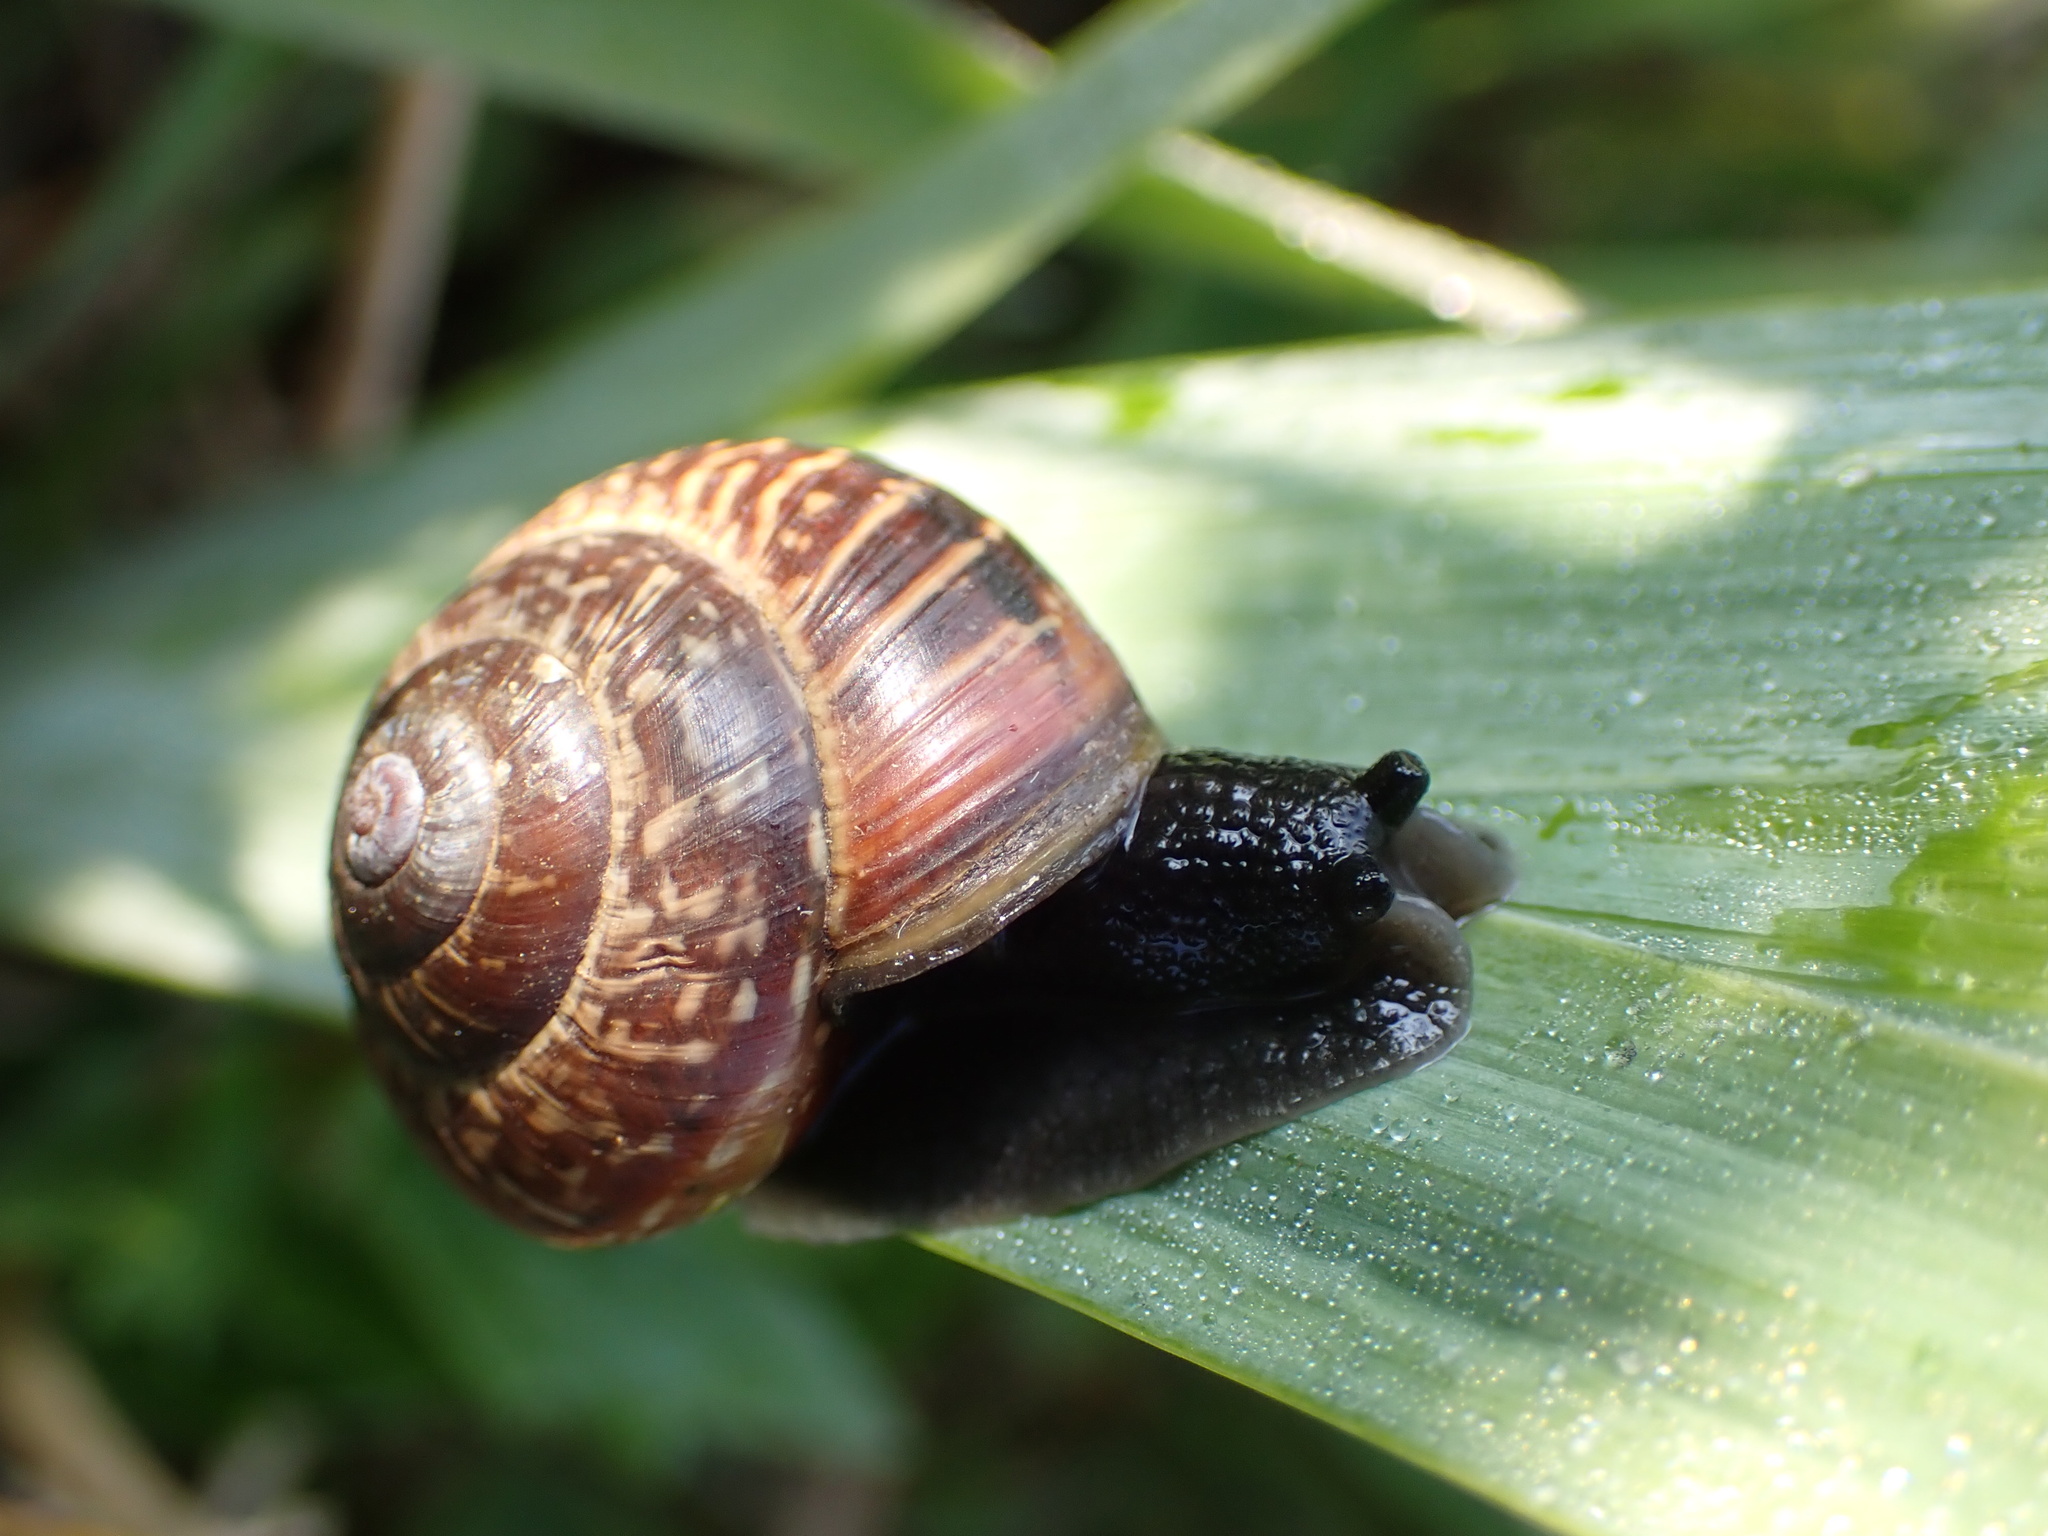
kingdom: Animalia
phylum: Mollusca
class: Gastropoda
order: Stylommatophora
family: Helicidae
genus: Arianta
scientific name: Arianta arbustorum
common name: Copse snail
